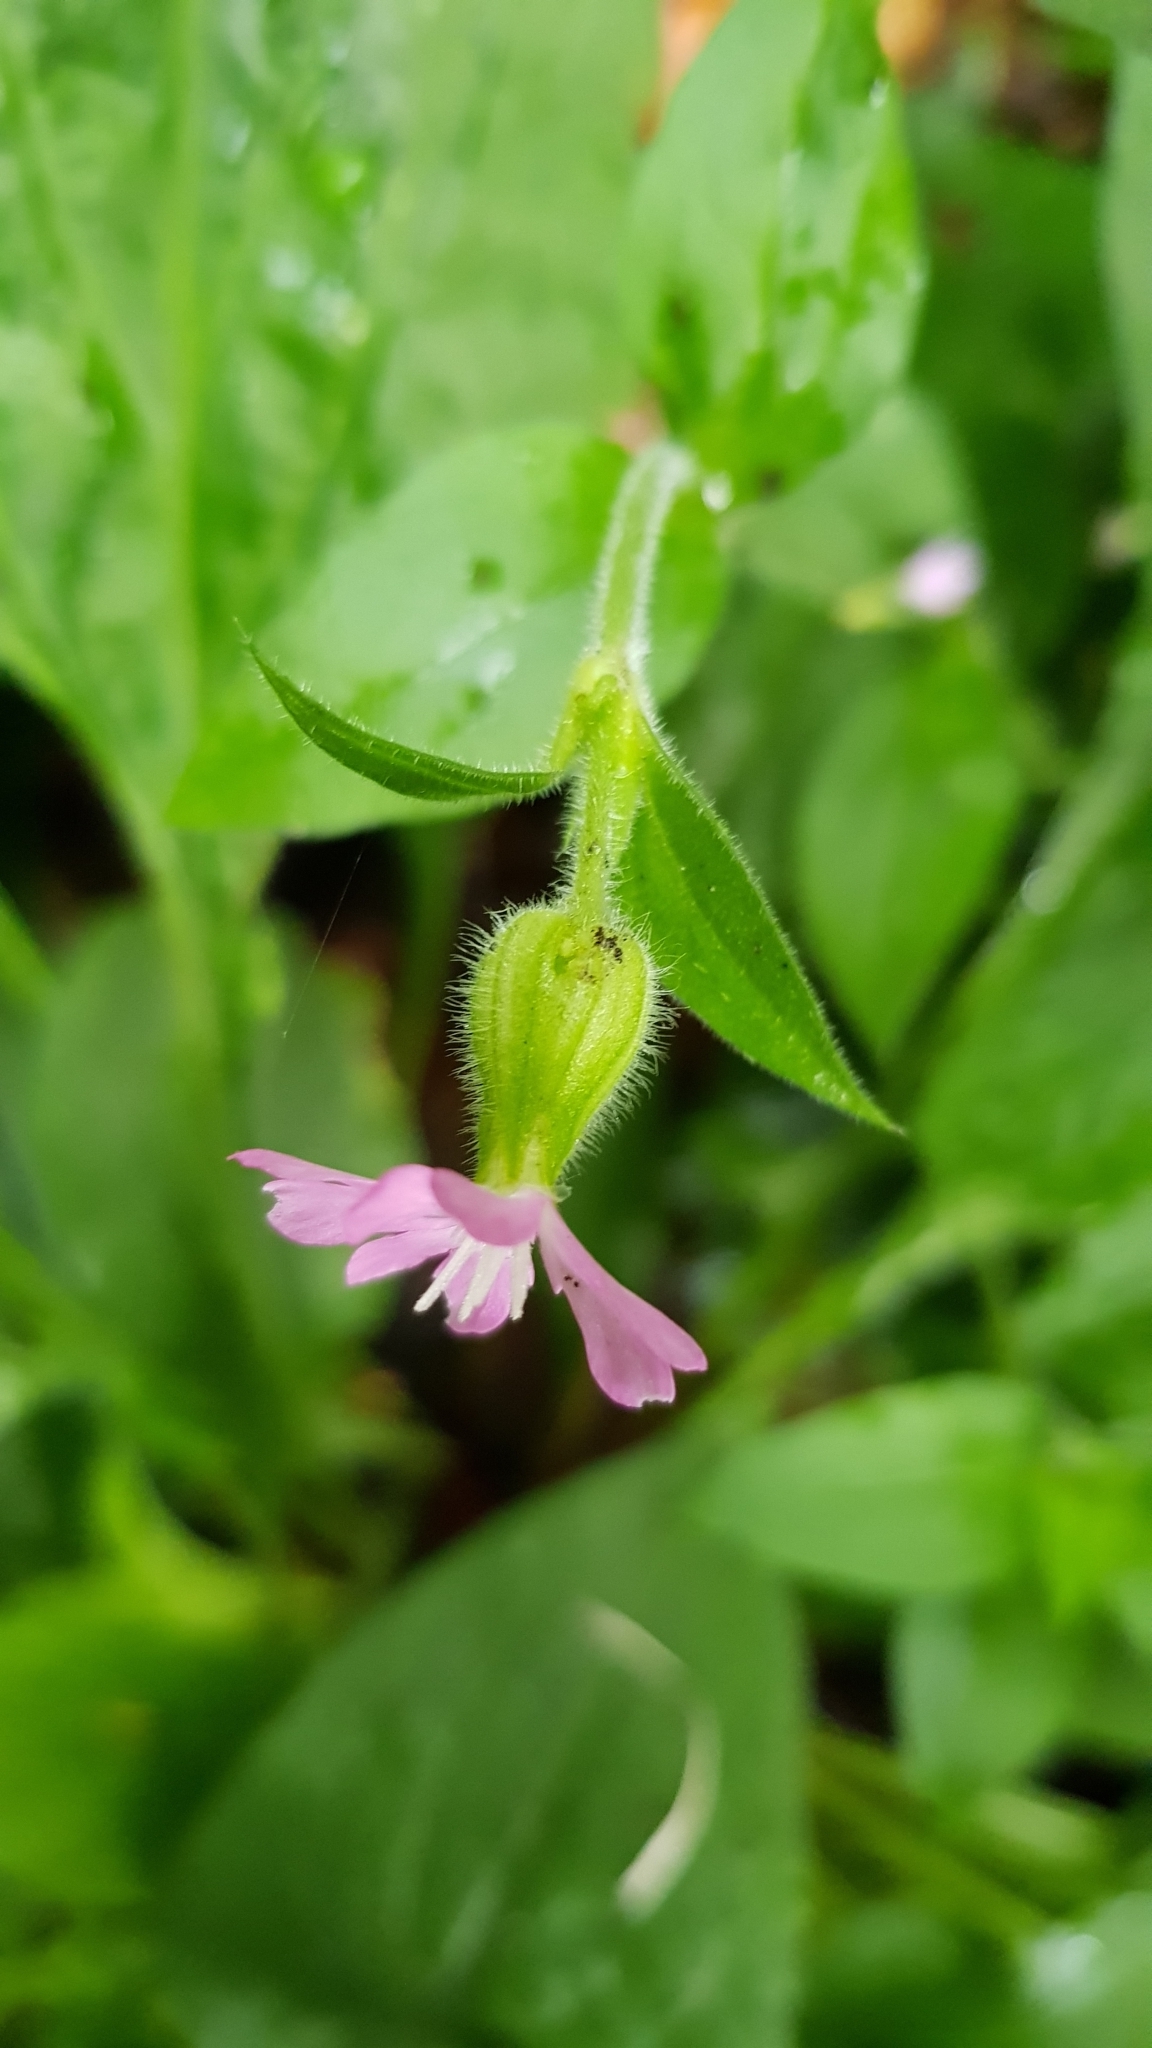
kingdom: Plantae
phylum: Tracheophyta
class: Magnoliopsida
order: Caryophyllales
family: Caryophyllaceae
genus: Silene
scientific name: Silene dioica
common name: Red campion
